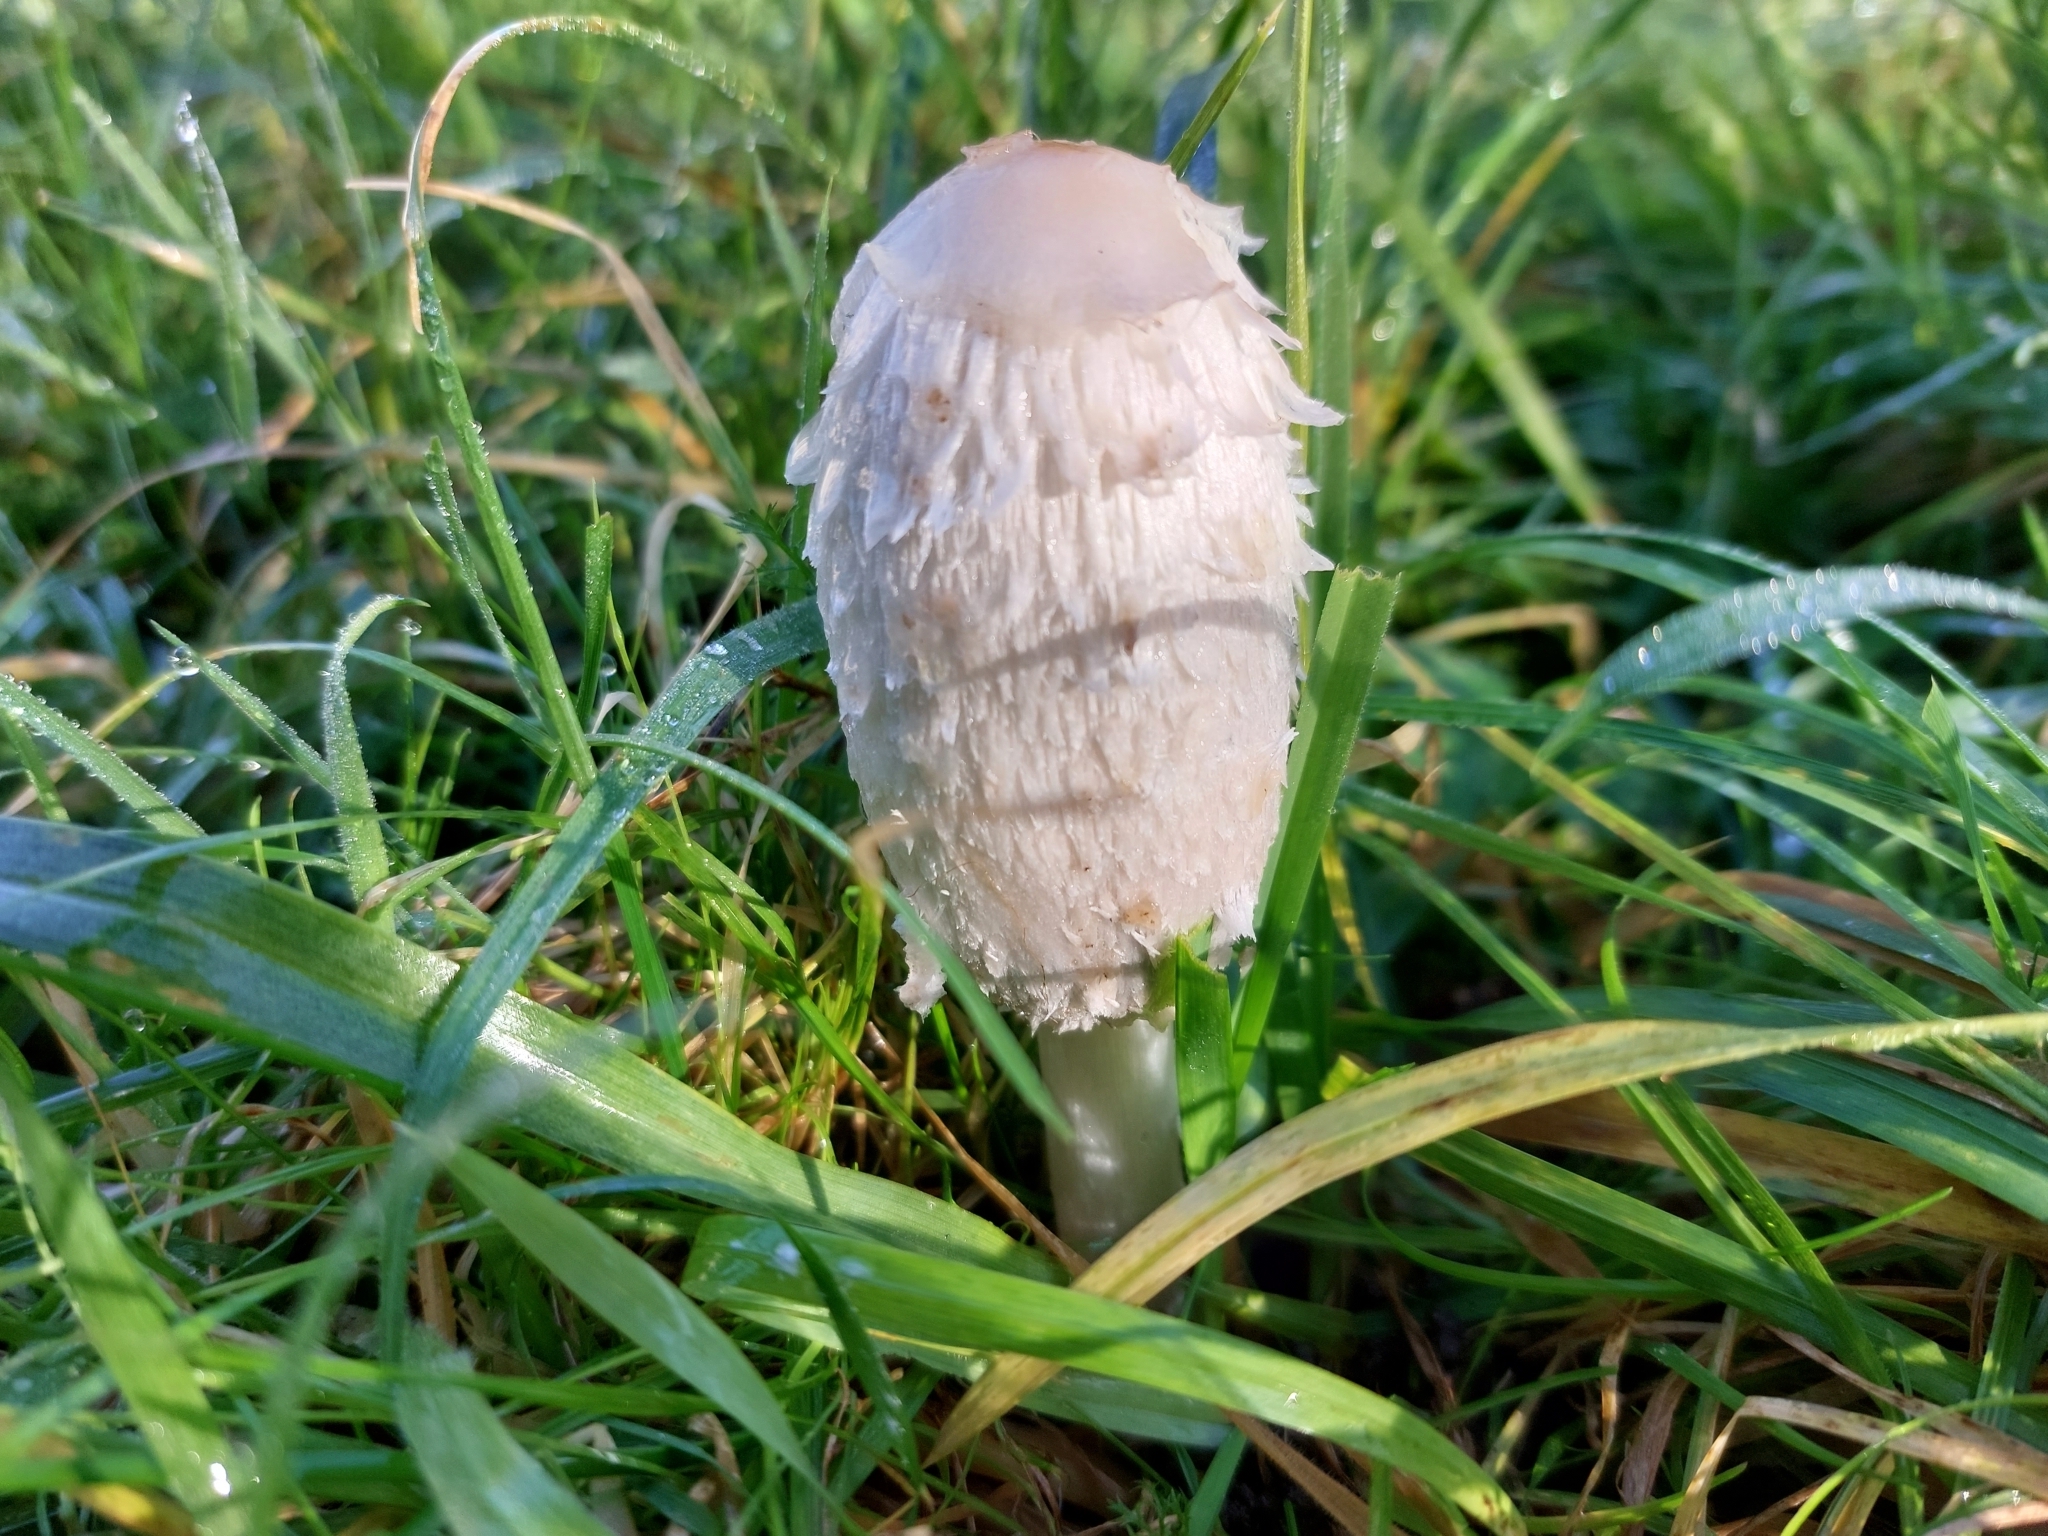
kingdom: Fungi
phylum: Basidiomycota
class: Agaricomycetes
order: Agaricales
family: Agaricaceae
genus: Coprinus
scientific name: Coprinus comatus
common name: Lawyer's wig
